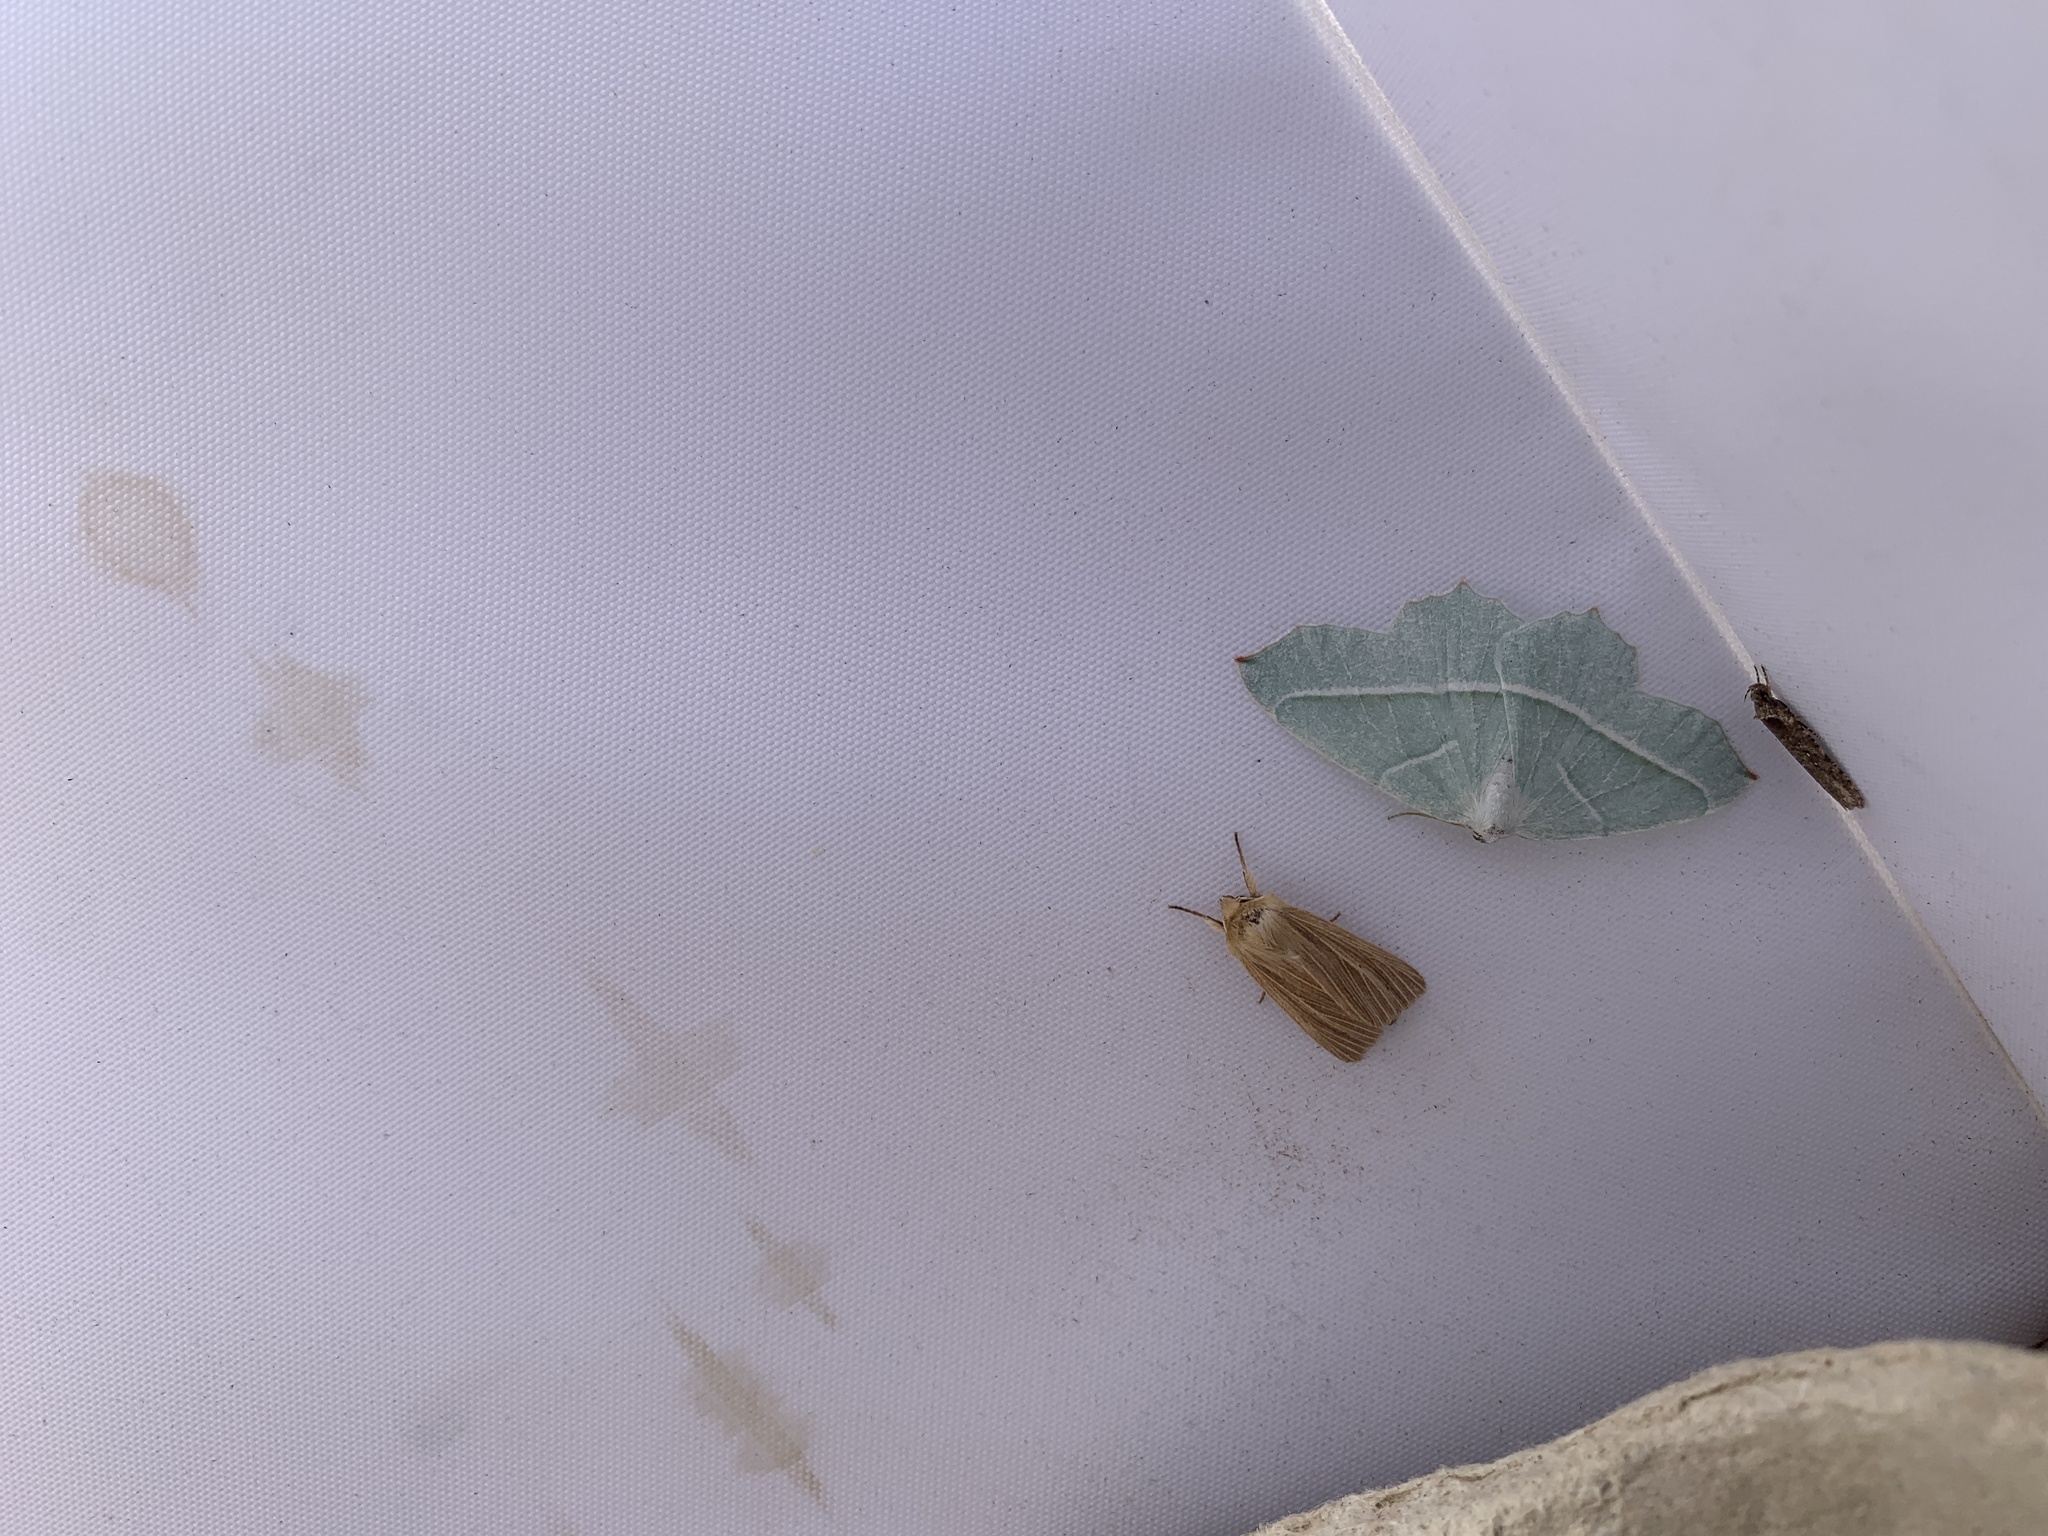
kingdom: Animalia
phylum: Arthropoda
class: Insecta
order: Lepidoptera
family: Geometridae
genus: Campaea
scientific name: Campaea margaritaria
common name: Light emerald
